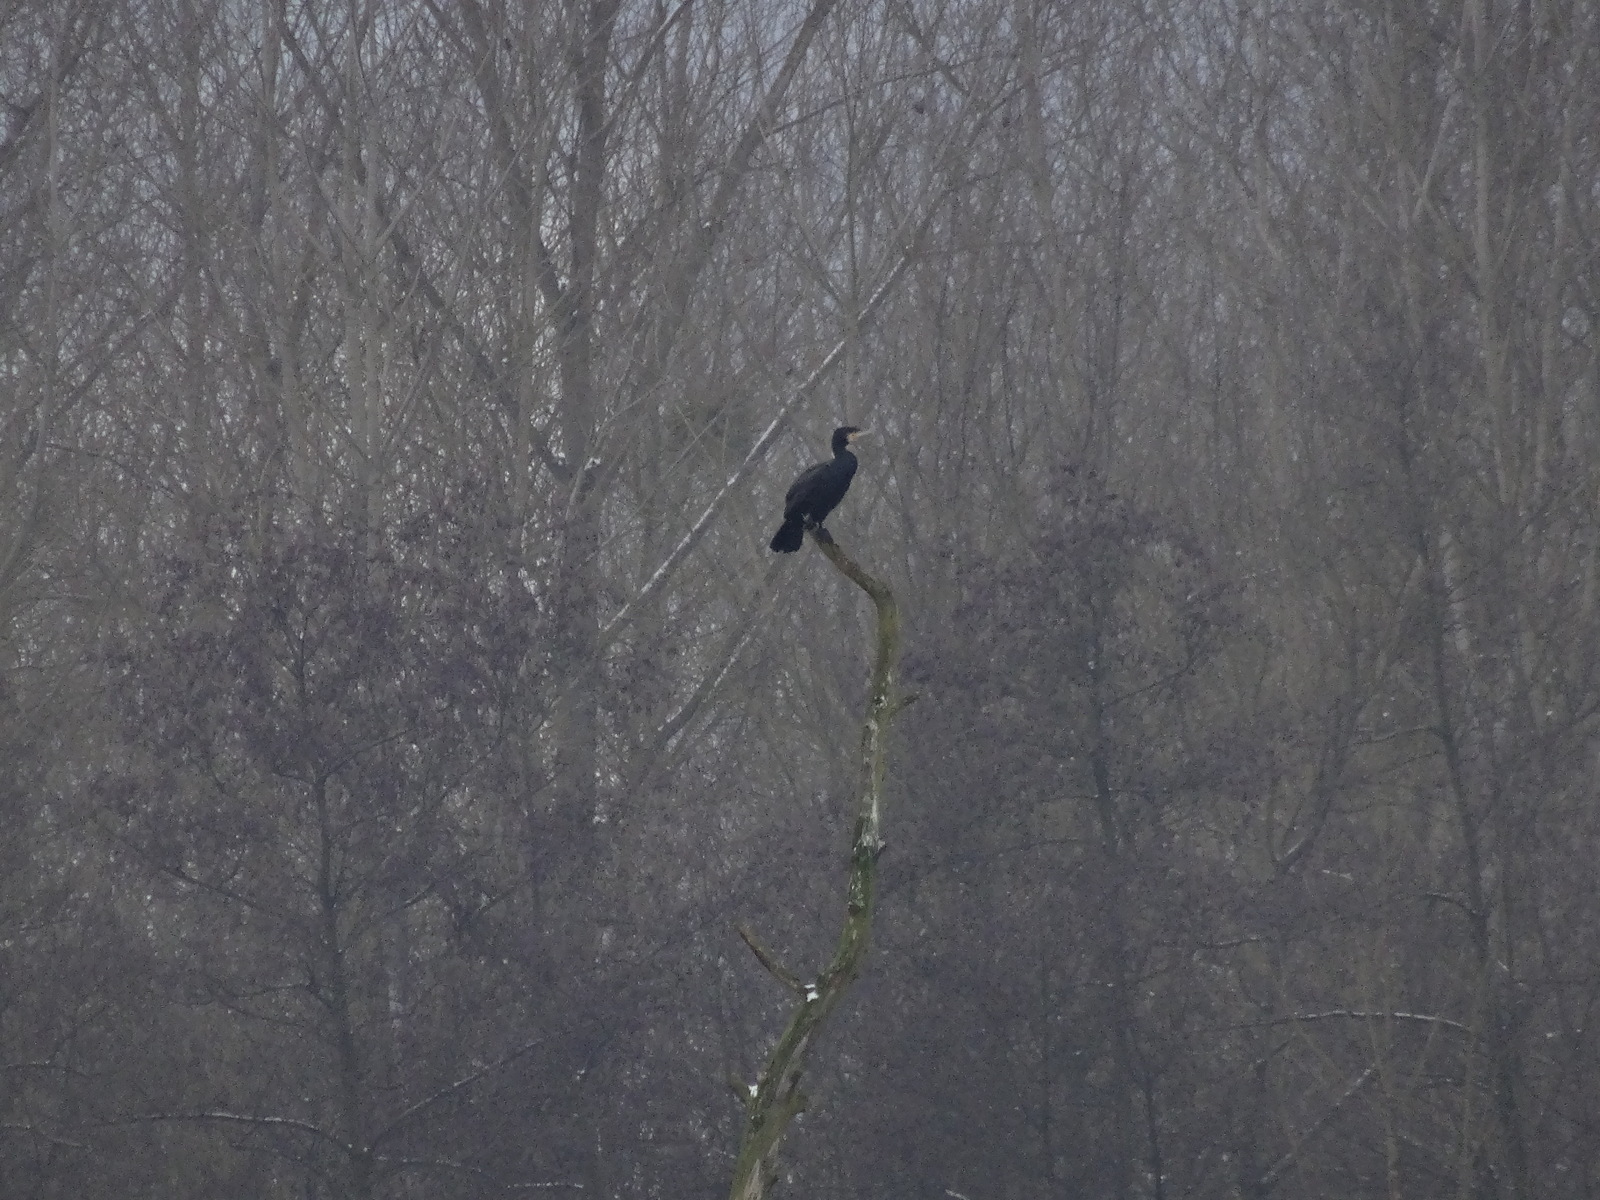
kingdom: Animalia
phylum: Chordata
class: Aves
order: Suliformes
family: Phalacrocoracidae
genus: Phalacrocorax
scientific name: Phalacrocorax carbo
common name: Great cormorant
